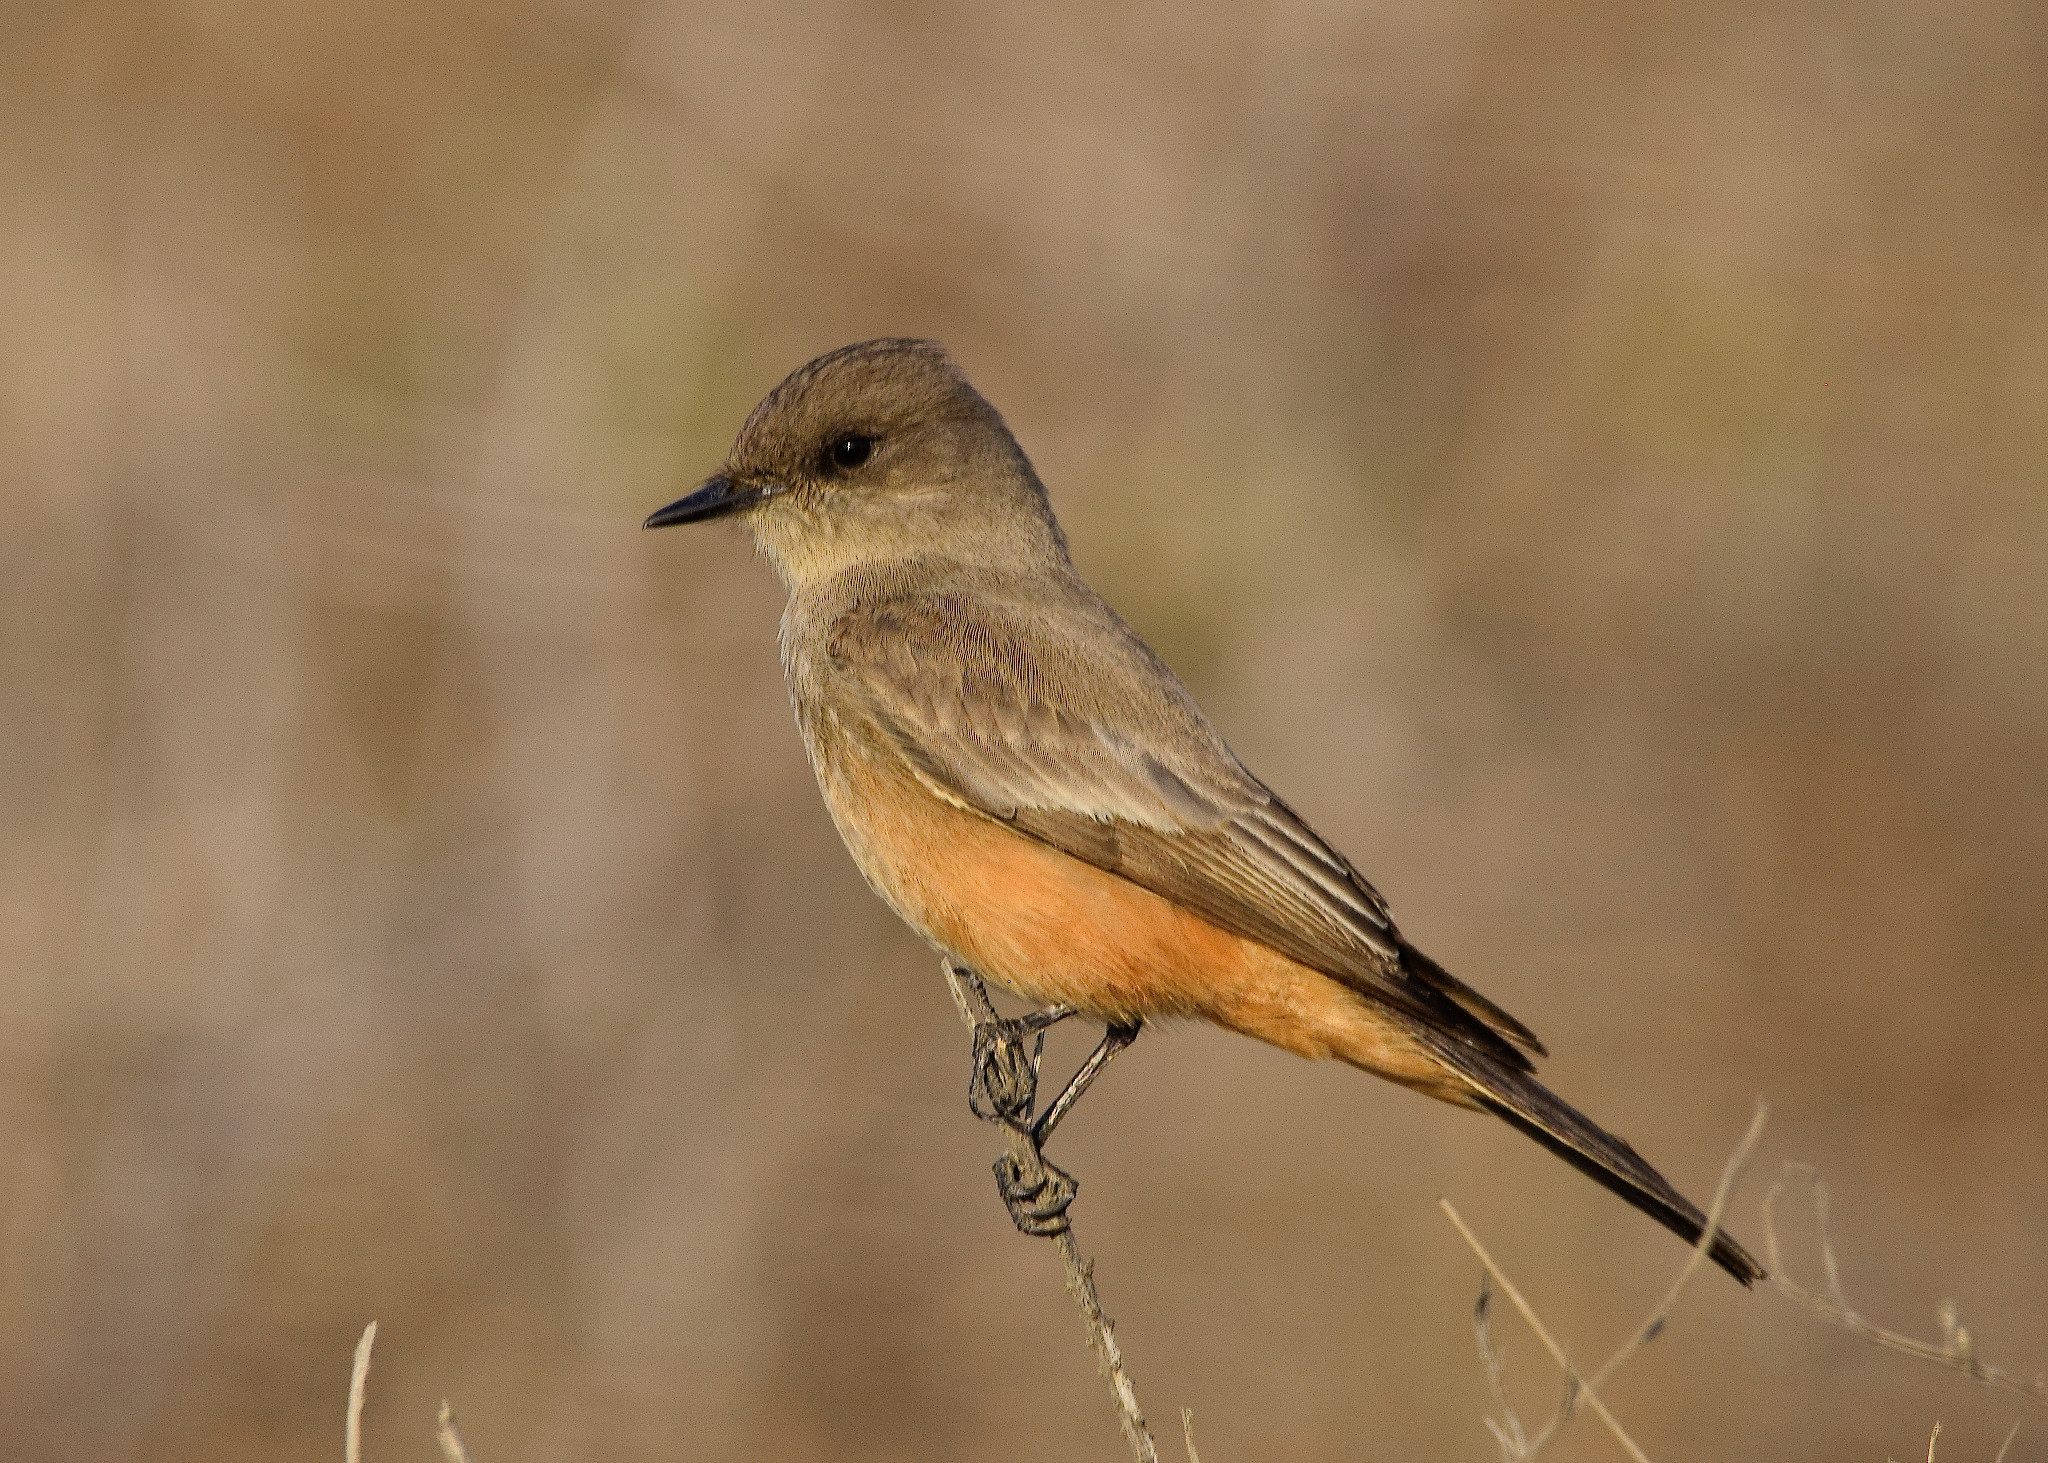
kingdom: Animalia
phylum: Chordata
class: Aves
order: Passeriformes
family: Tyrannidae
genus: Sayornis
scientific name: Sayornis saya
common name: Say's phoebe
